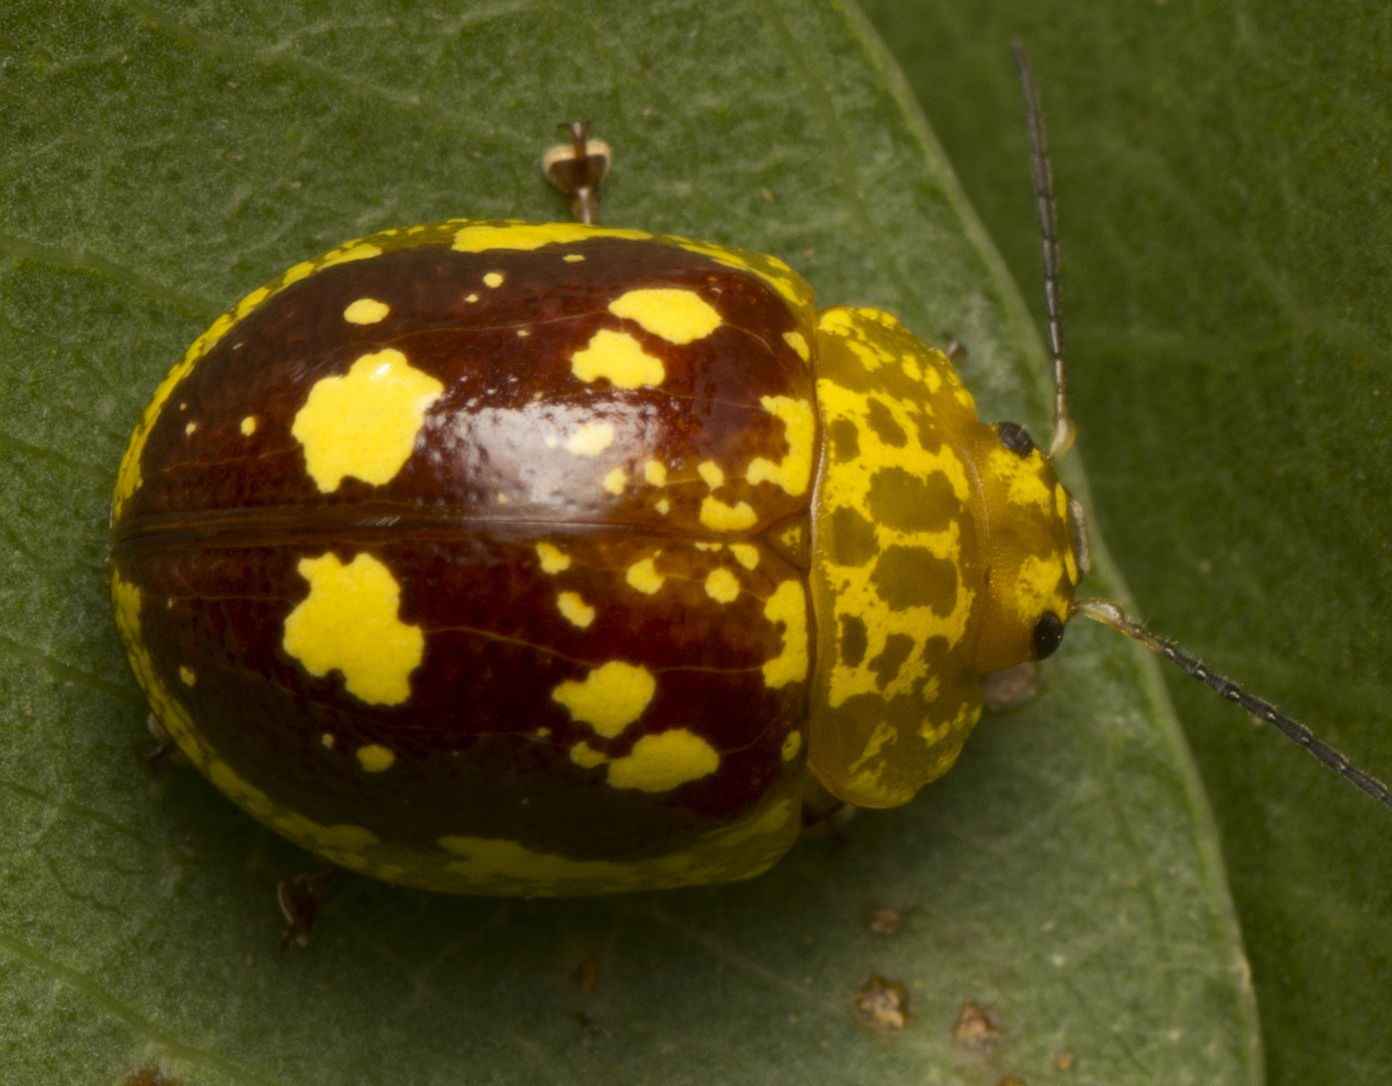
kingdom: Animalia
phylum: Arthropoda
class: Insecta
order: Coleoptera
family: Chrysomelidae
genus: Paropsis
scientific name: Paropsis maculata
